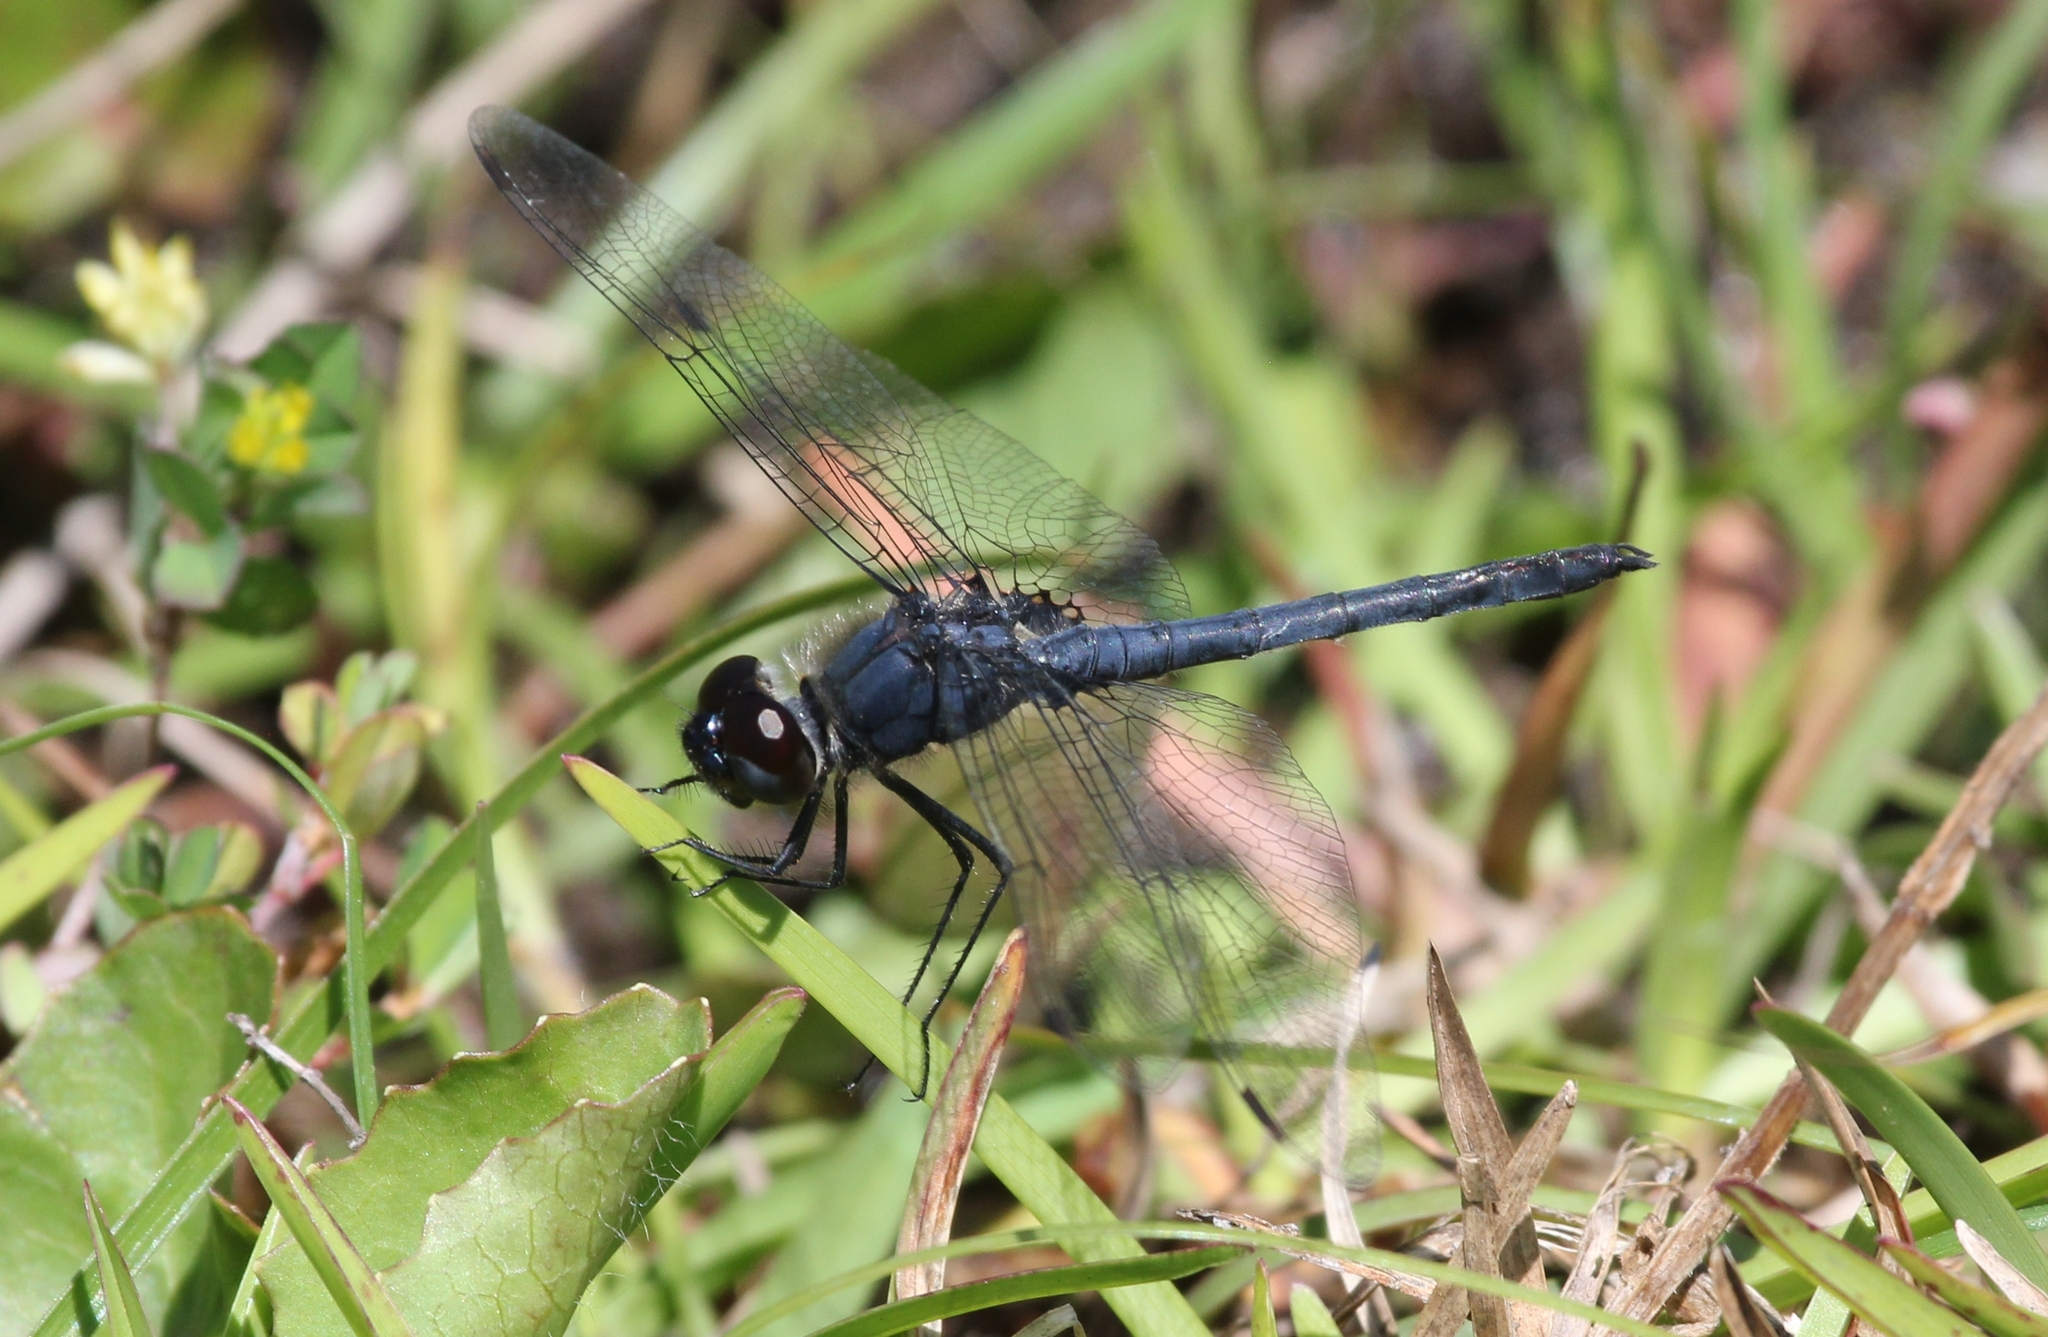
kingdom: Animalia
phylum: Arthropoda
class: Insecta
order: Odonata
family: Libellulidae
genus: Celithemis
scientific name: Celithemis verna
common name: Double-ringed pennant
